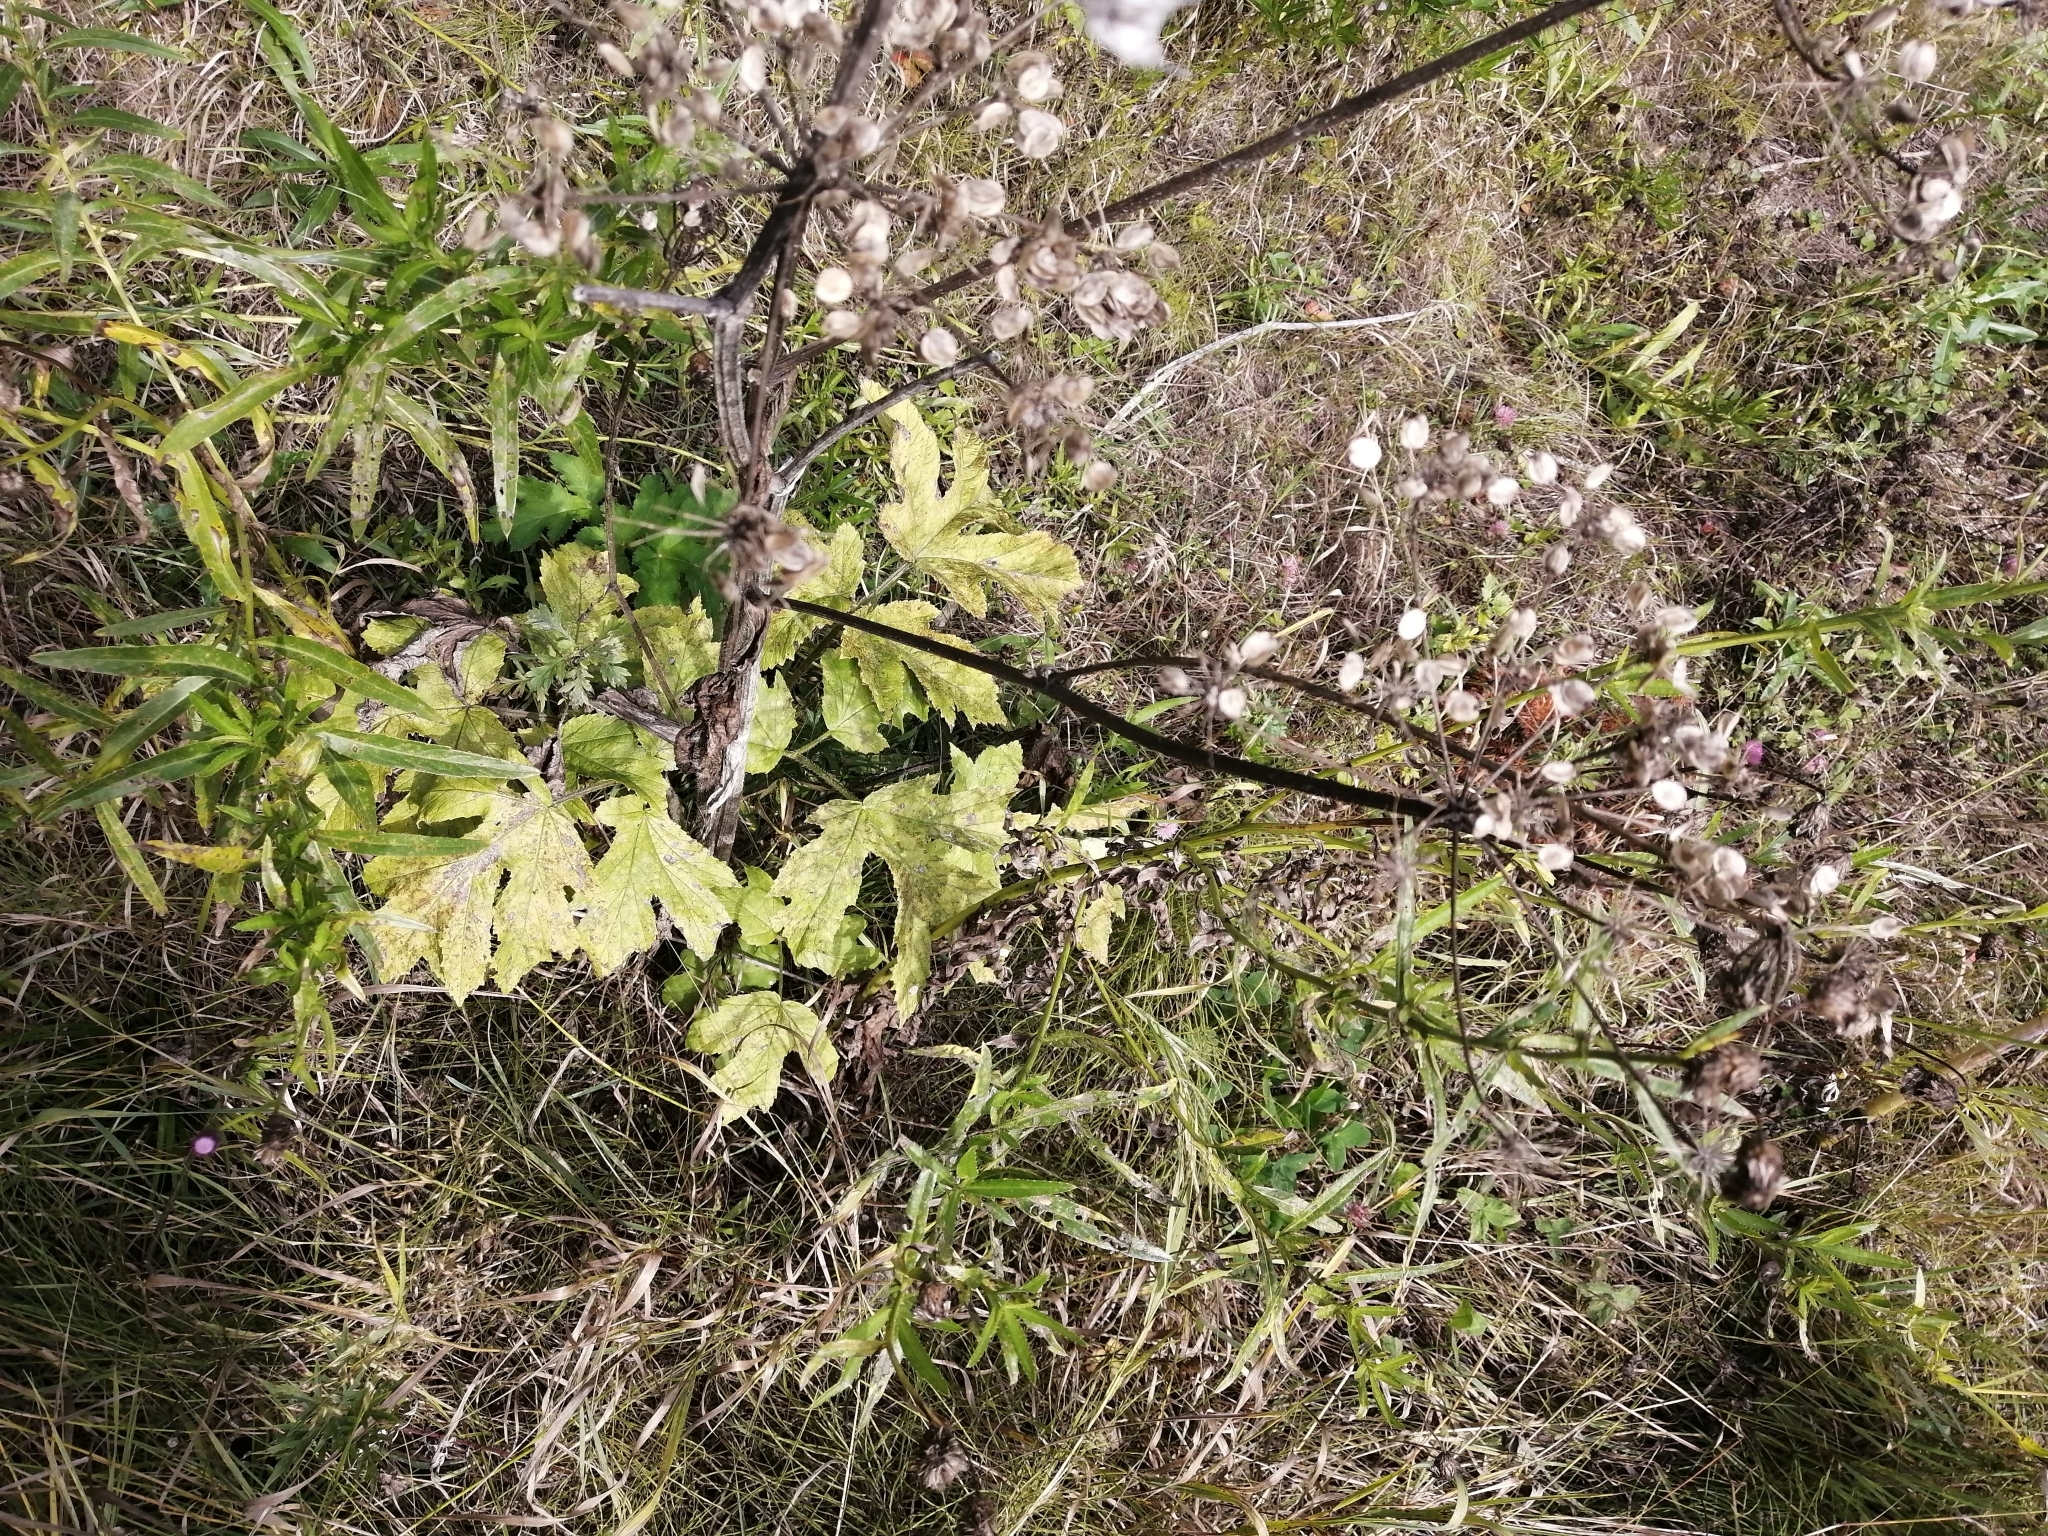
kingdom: Plantae
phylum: Tracheophyta
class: Magnoliopsida
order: Apiales
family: Apiaceae
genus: Heracleum
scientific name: Heracleum sphondylium
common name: Hogweed
